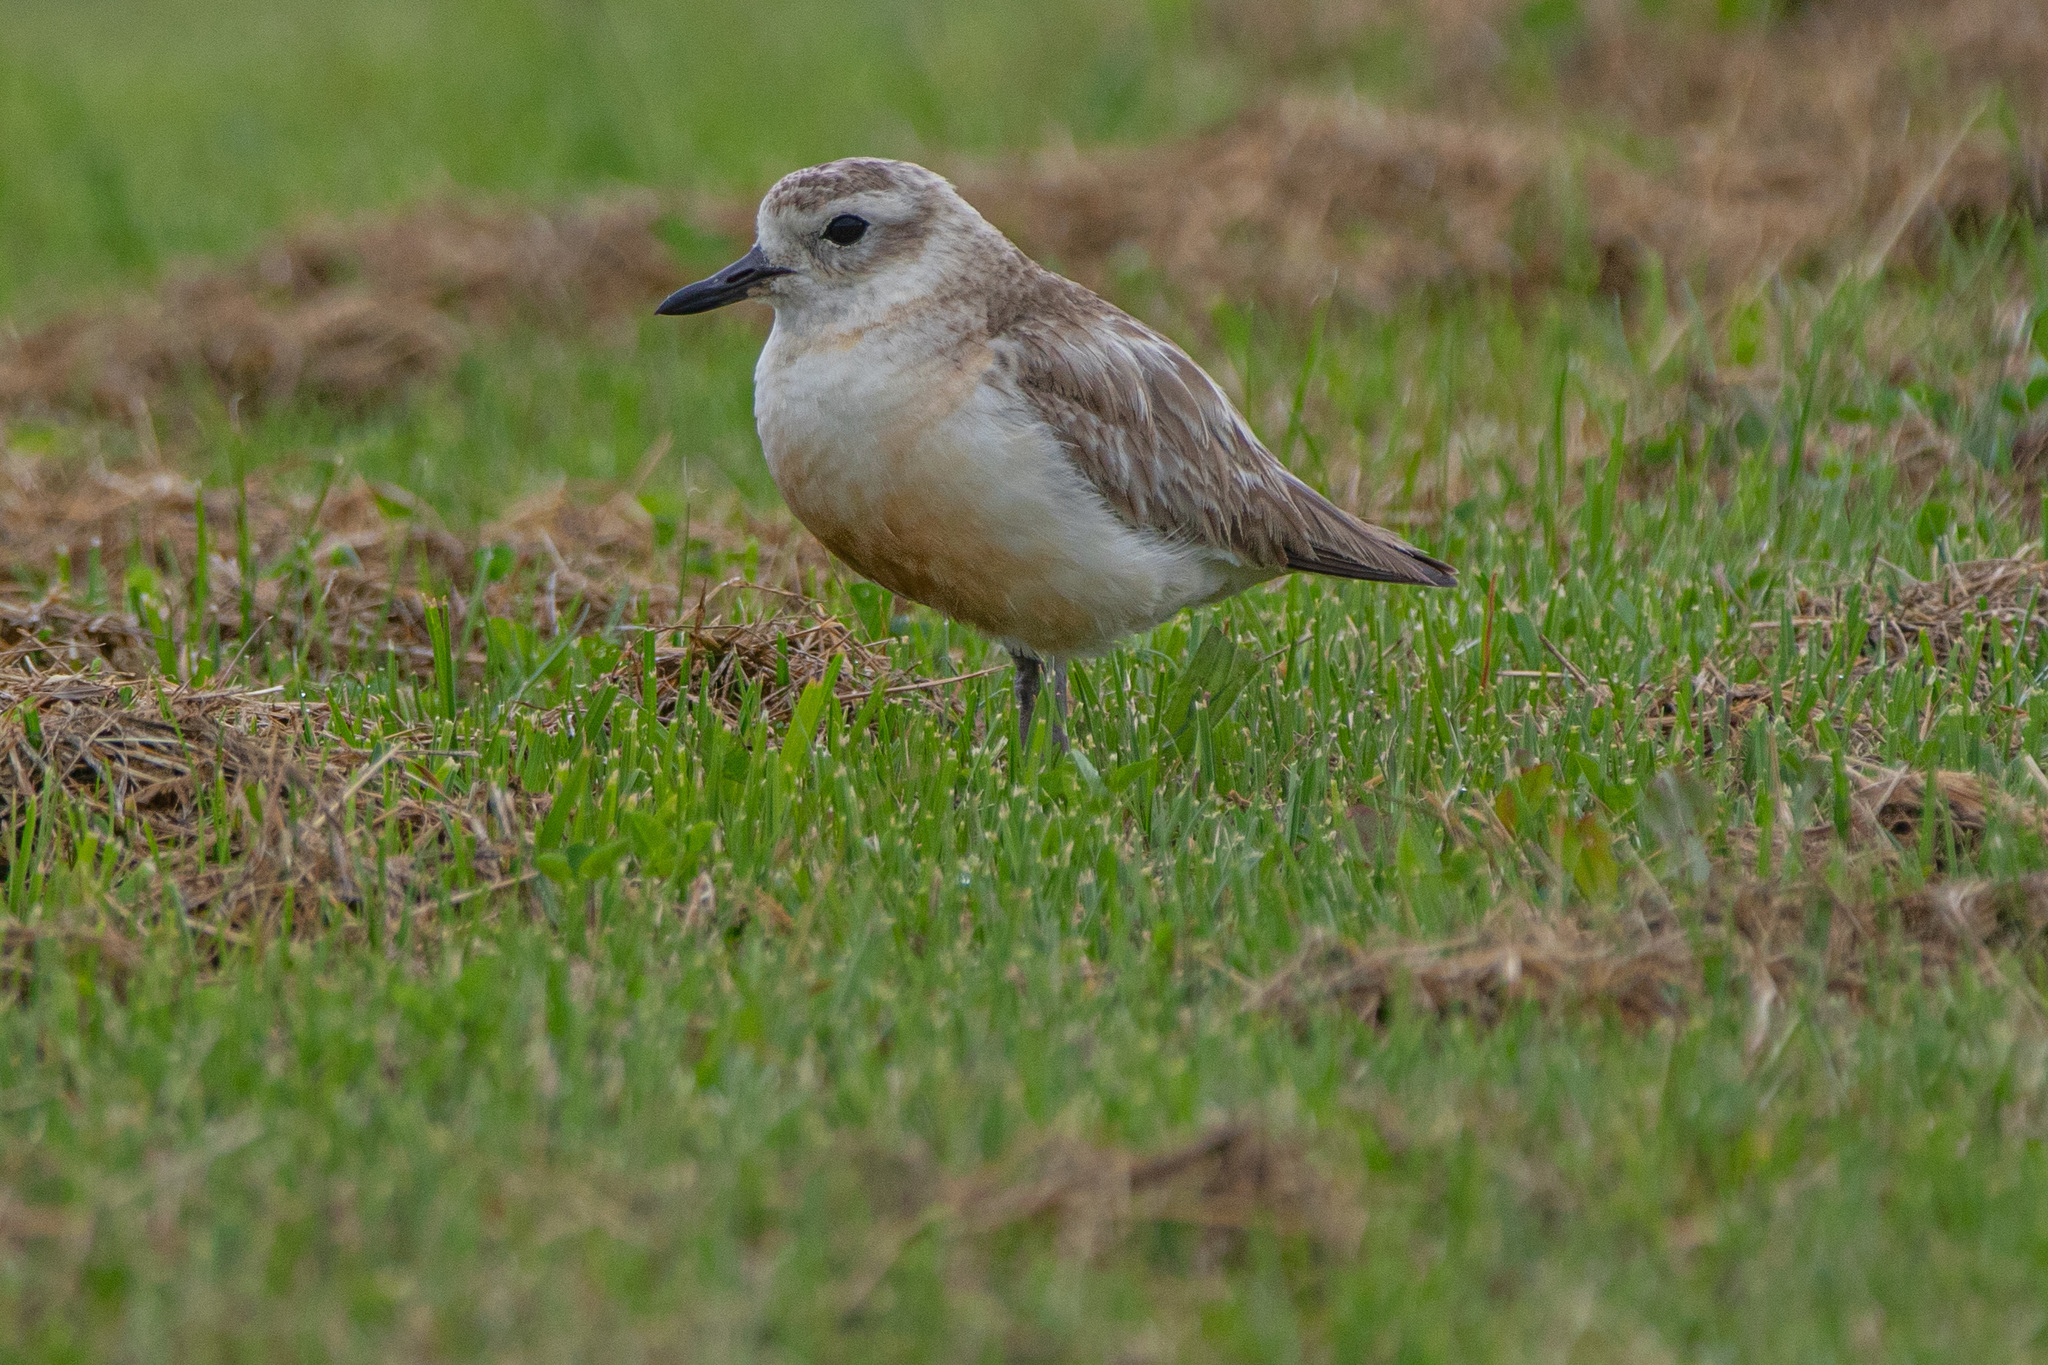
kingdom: Animalia
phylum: Chordata
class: Aves
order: Charadriiformes
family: Charadriidae
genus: Anarhynchus
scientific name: Anarhynchus
